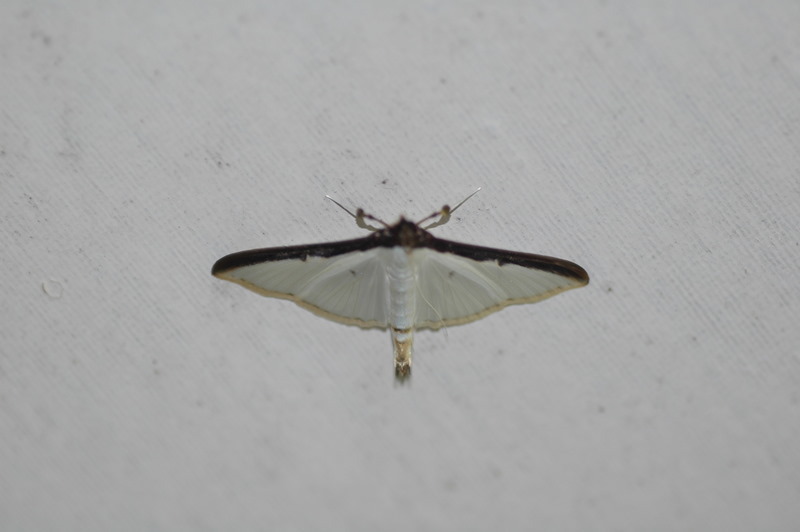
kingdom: Animalia
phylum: Arthropoda
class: Insecta
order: Lepidoptera
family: Crambidae
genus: Cydalima
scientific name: Cydalima laticostalis
